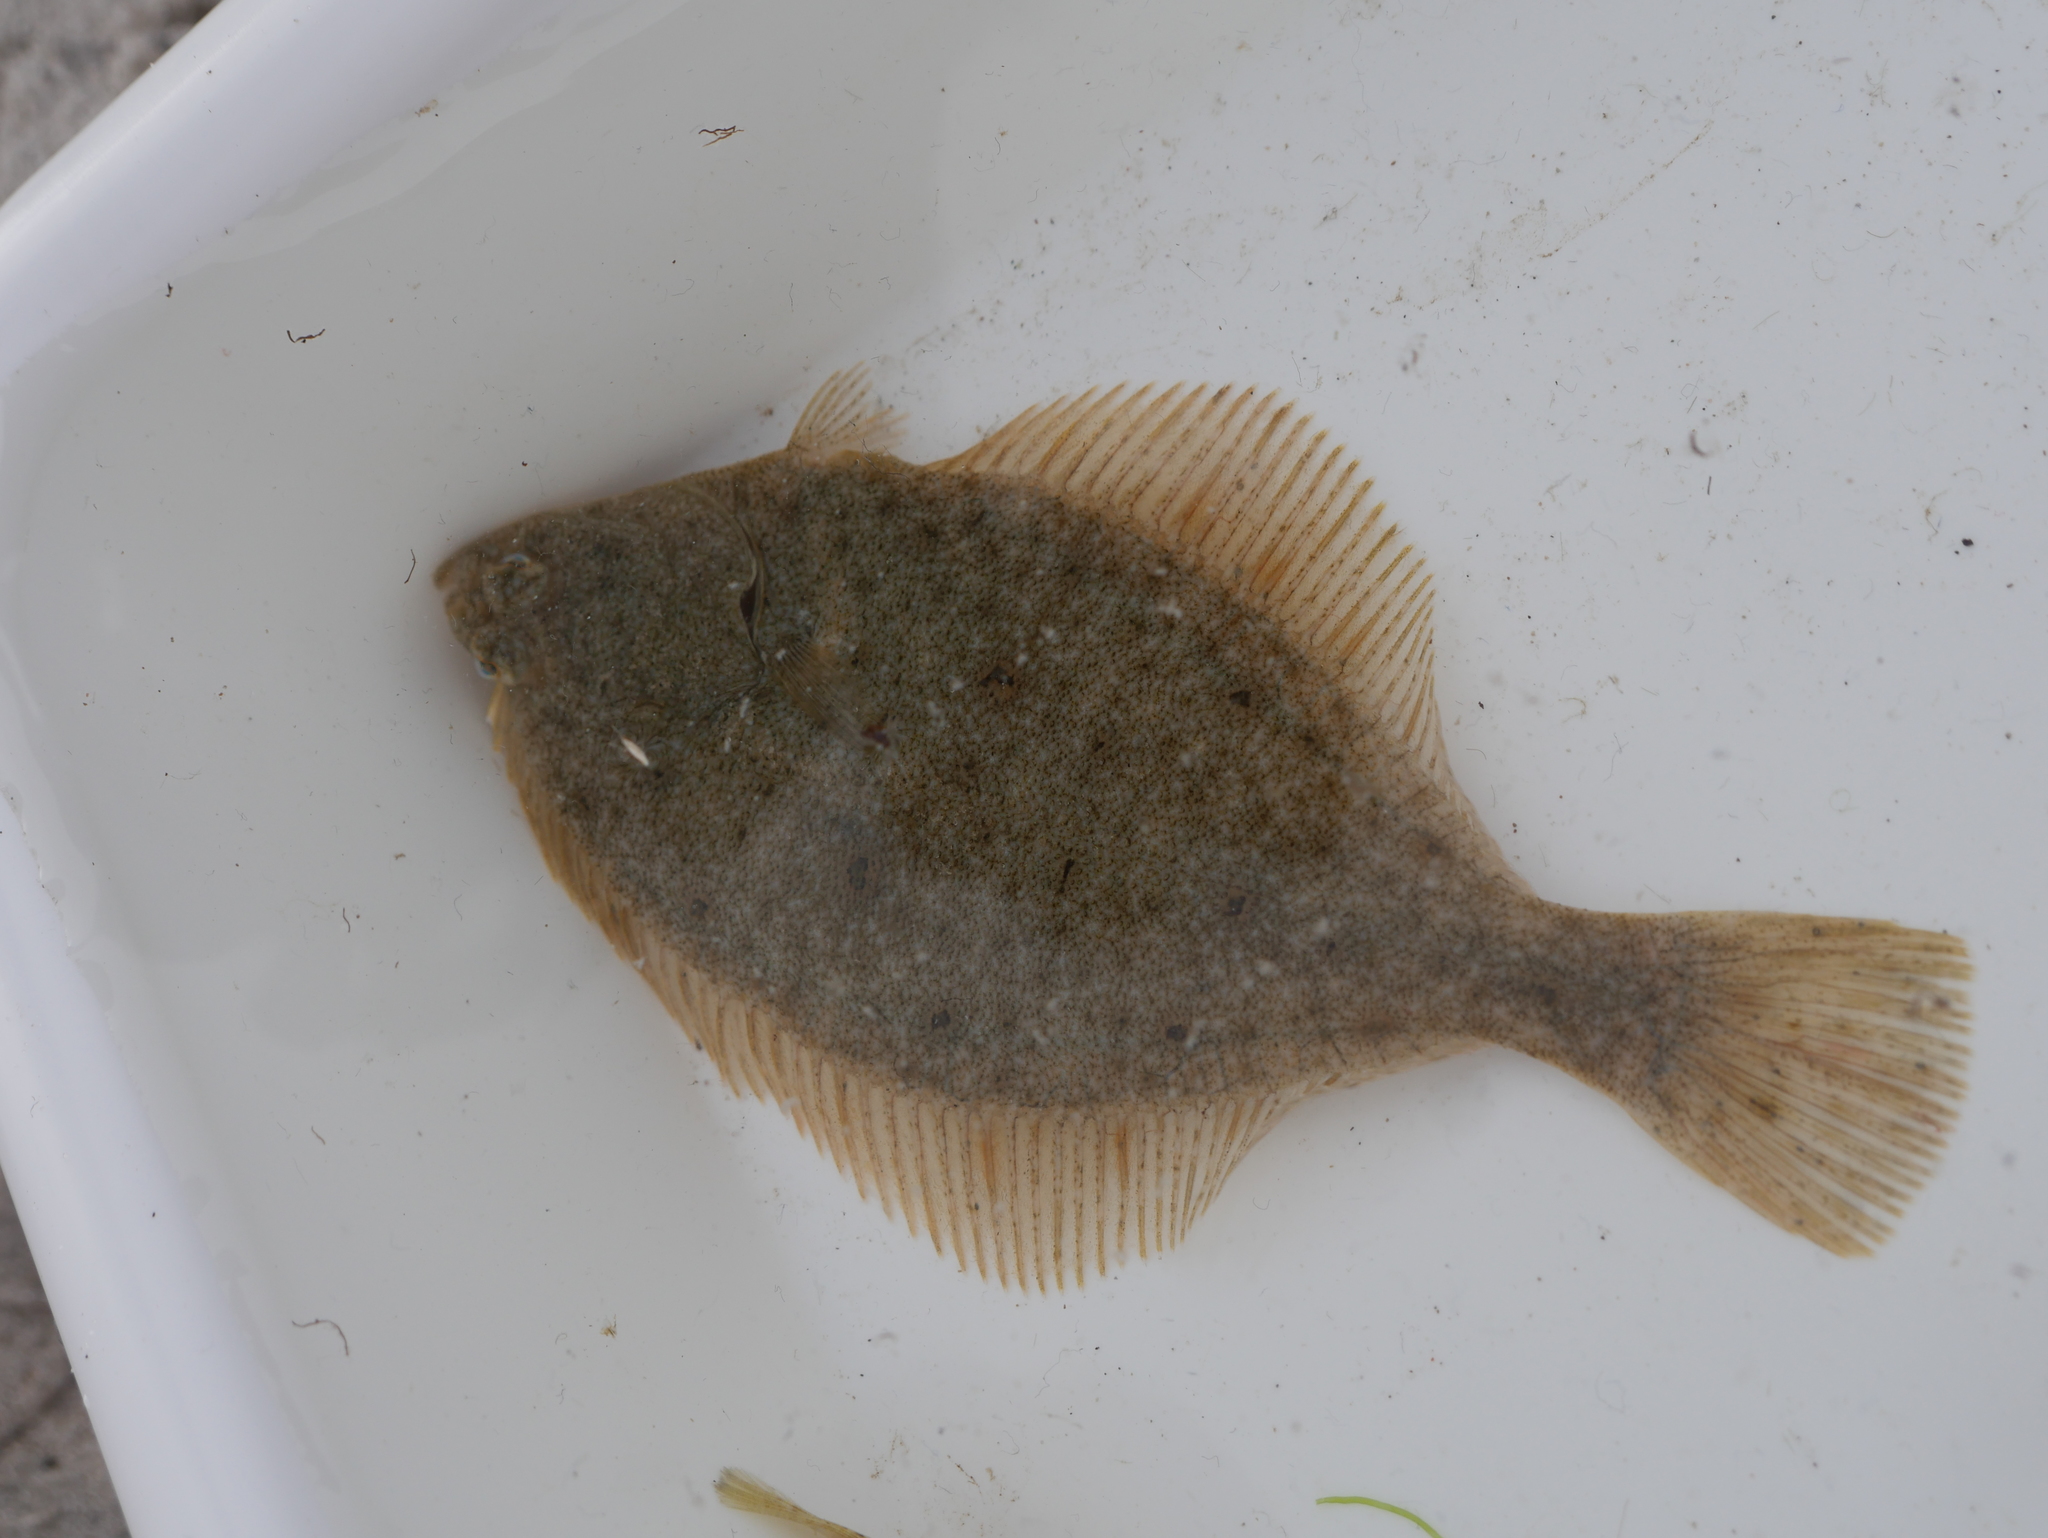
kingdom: Animalia
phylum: Chordata
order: Pleuronectiformes
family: Pleuronectidae
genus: Platichthys
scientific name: Platichthys flesus
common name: European flounder
